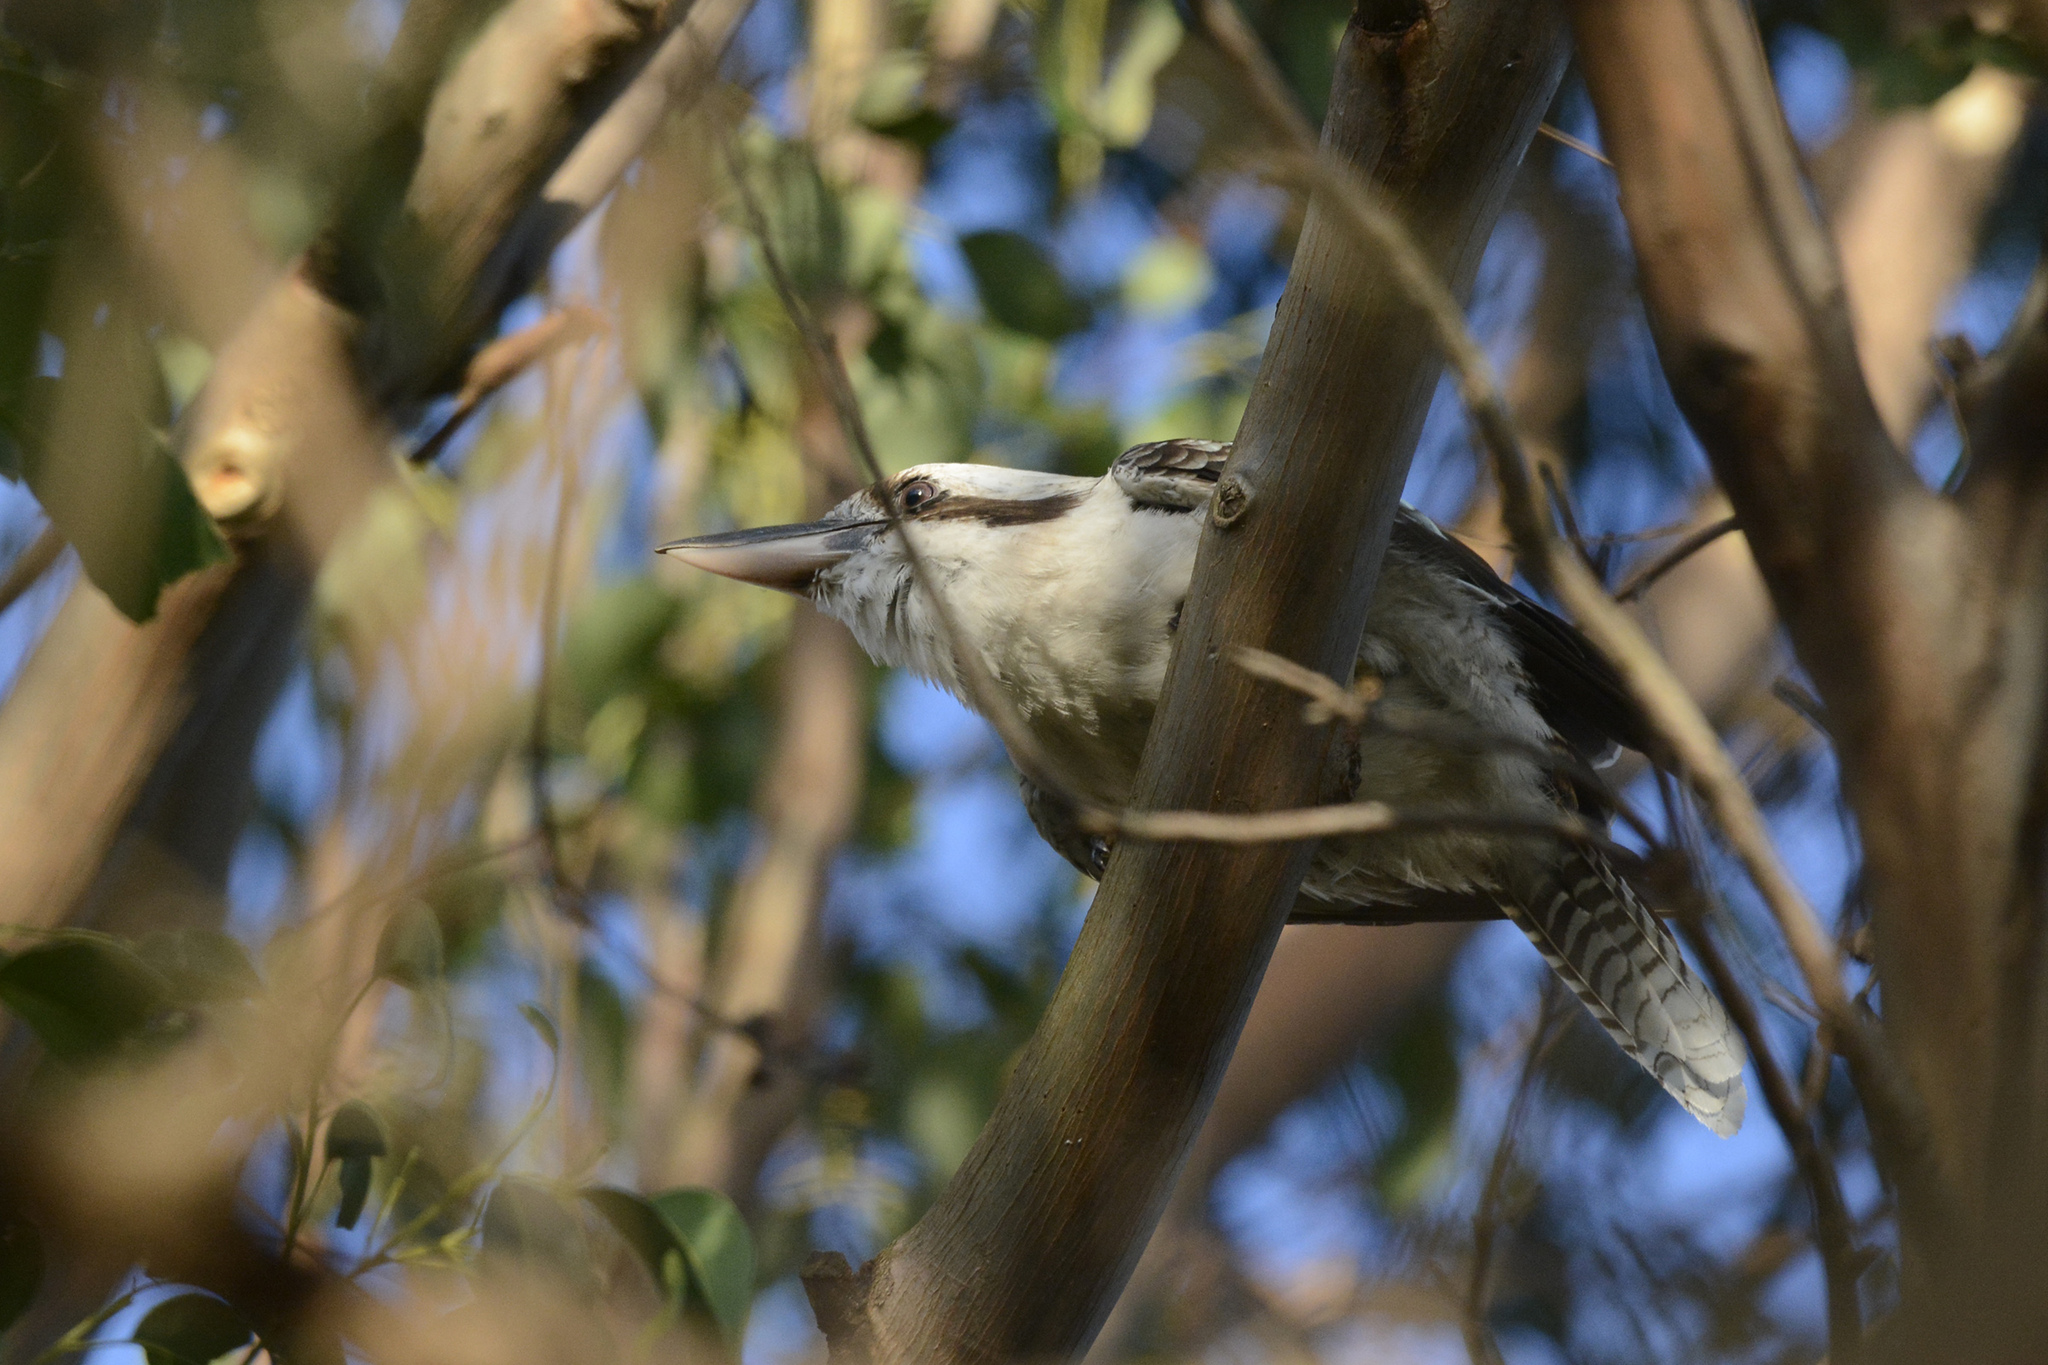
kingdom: Animalia
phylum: Chordata
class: Aves
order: Coraciiformes
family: Alcedinidae
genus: Dacelo
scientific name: Dacelo novaeguineae
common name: Laughing kookaburra
